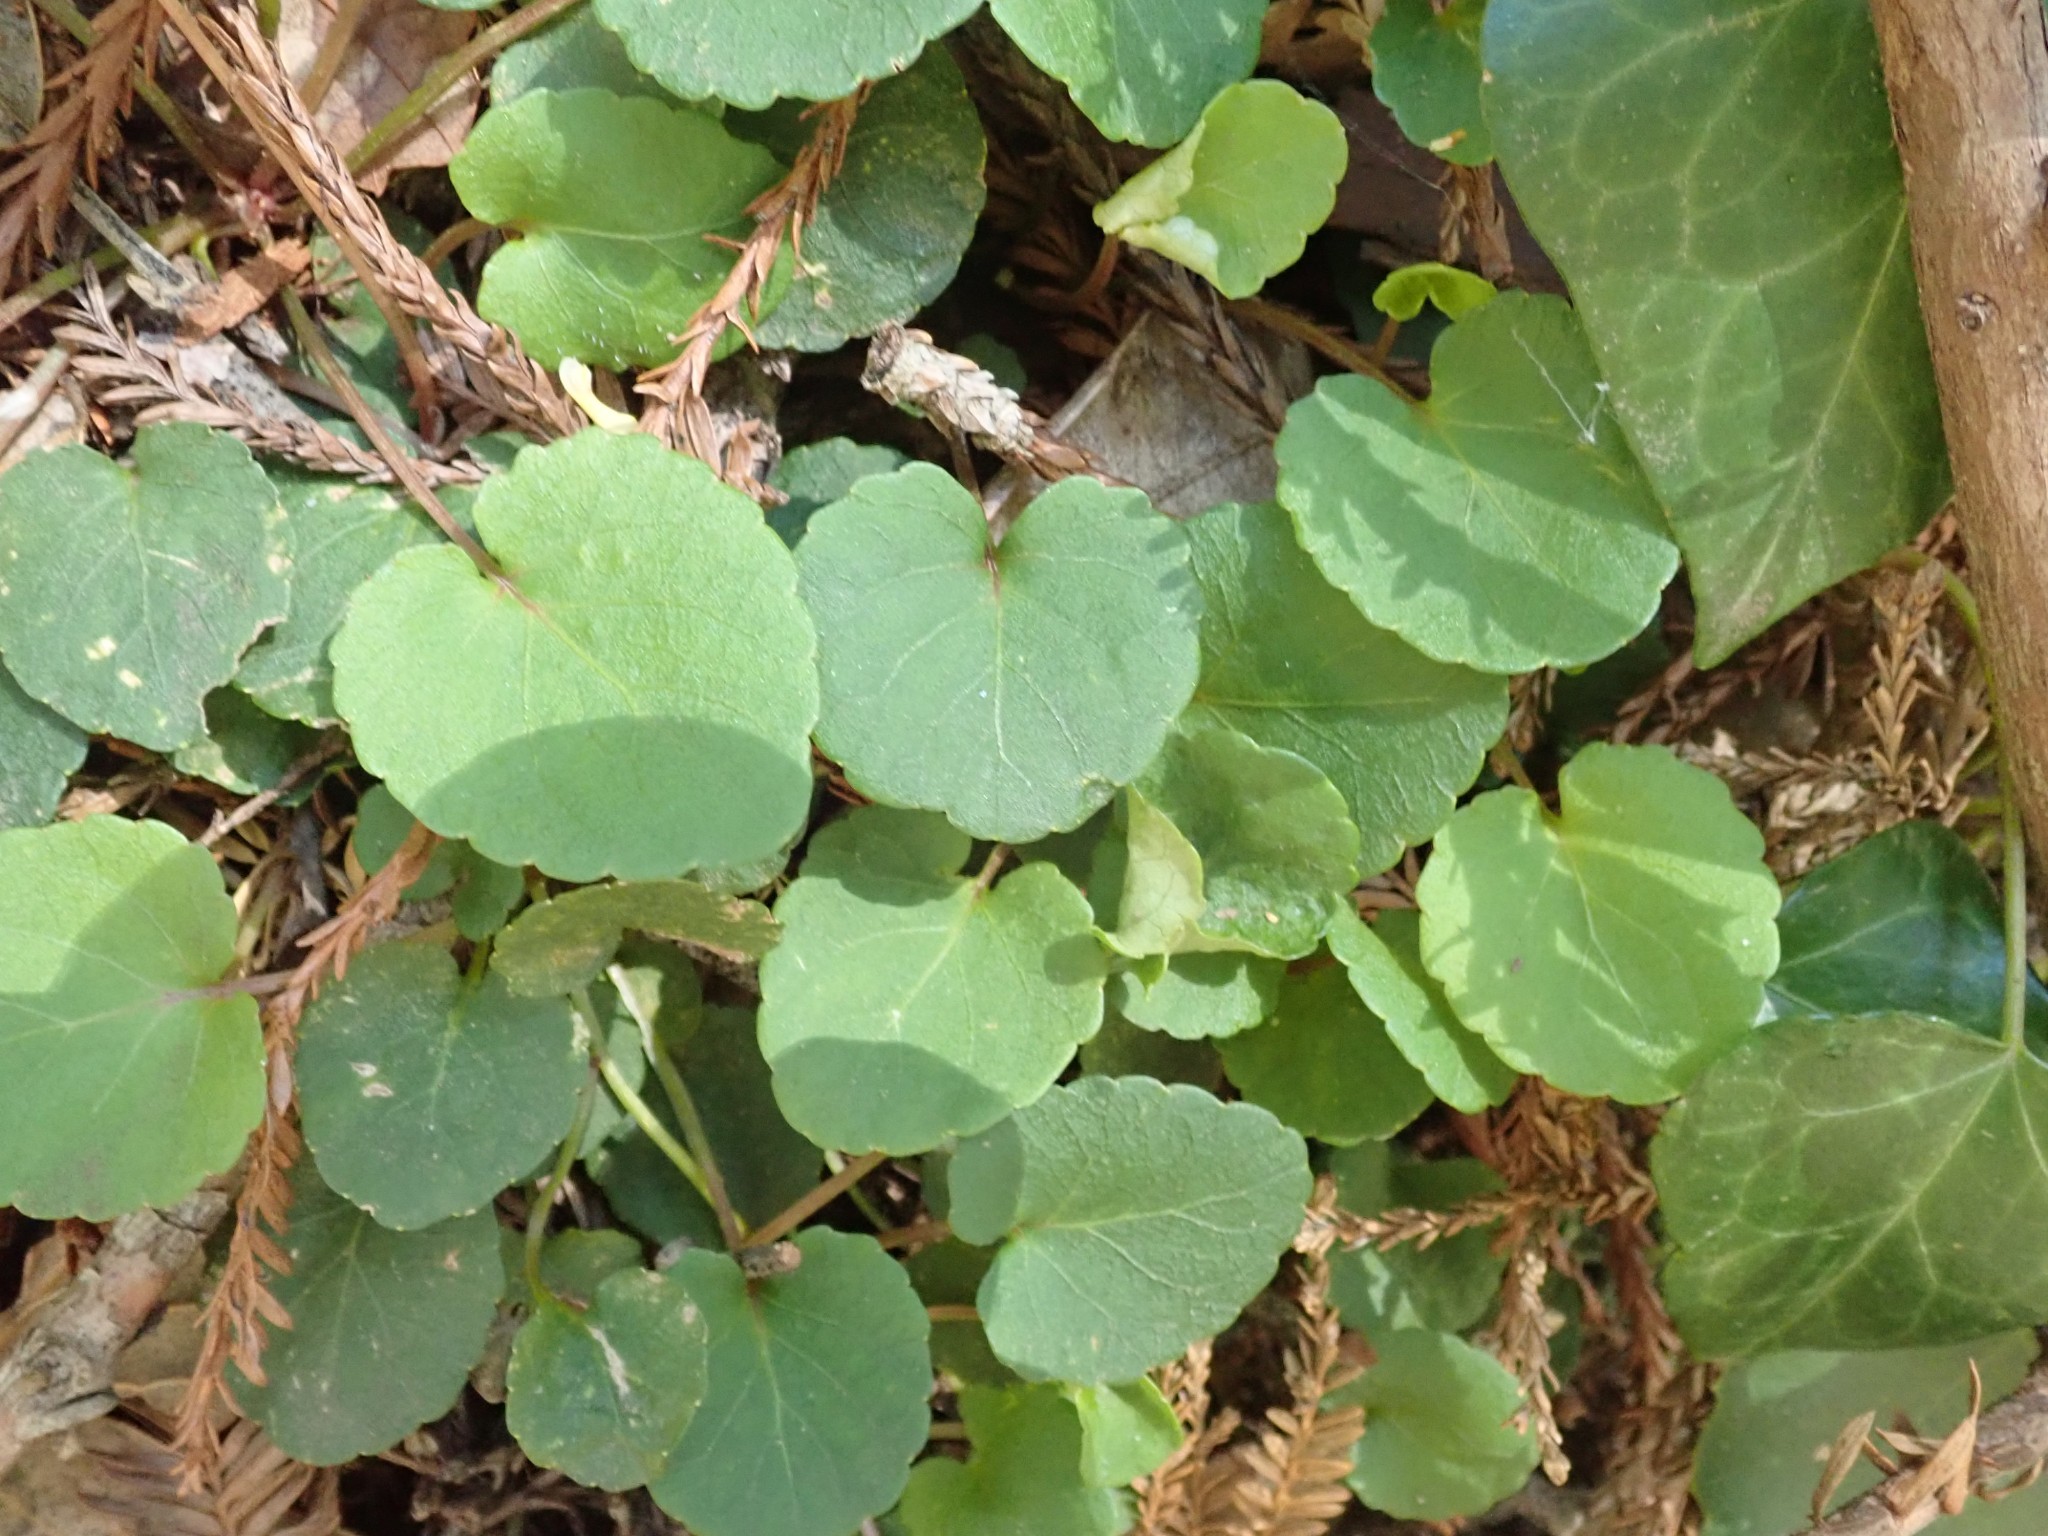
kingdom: Plantae
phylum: Tracheophyta
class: Magnoliopsida
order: Malpighiales
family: Violaceae
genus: Viola
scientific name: Viola sempervirens
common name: Evergreen violet
